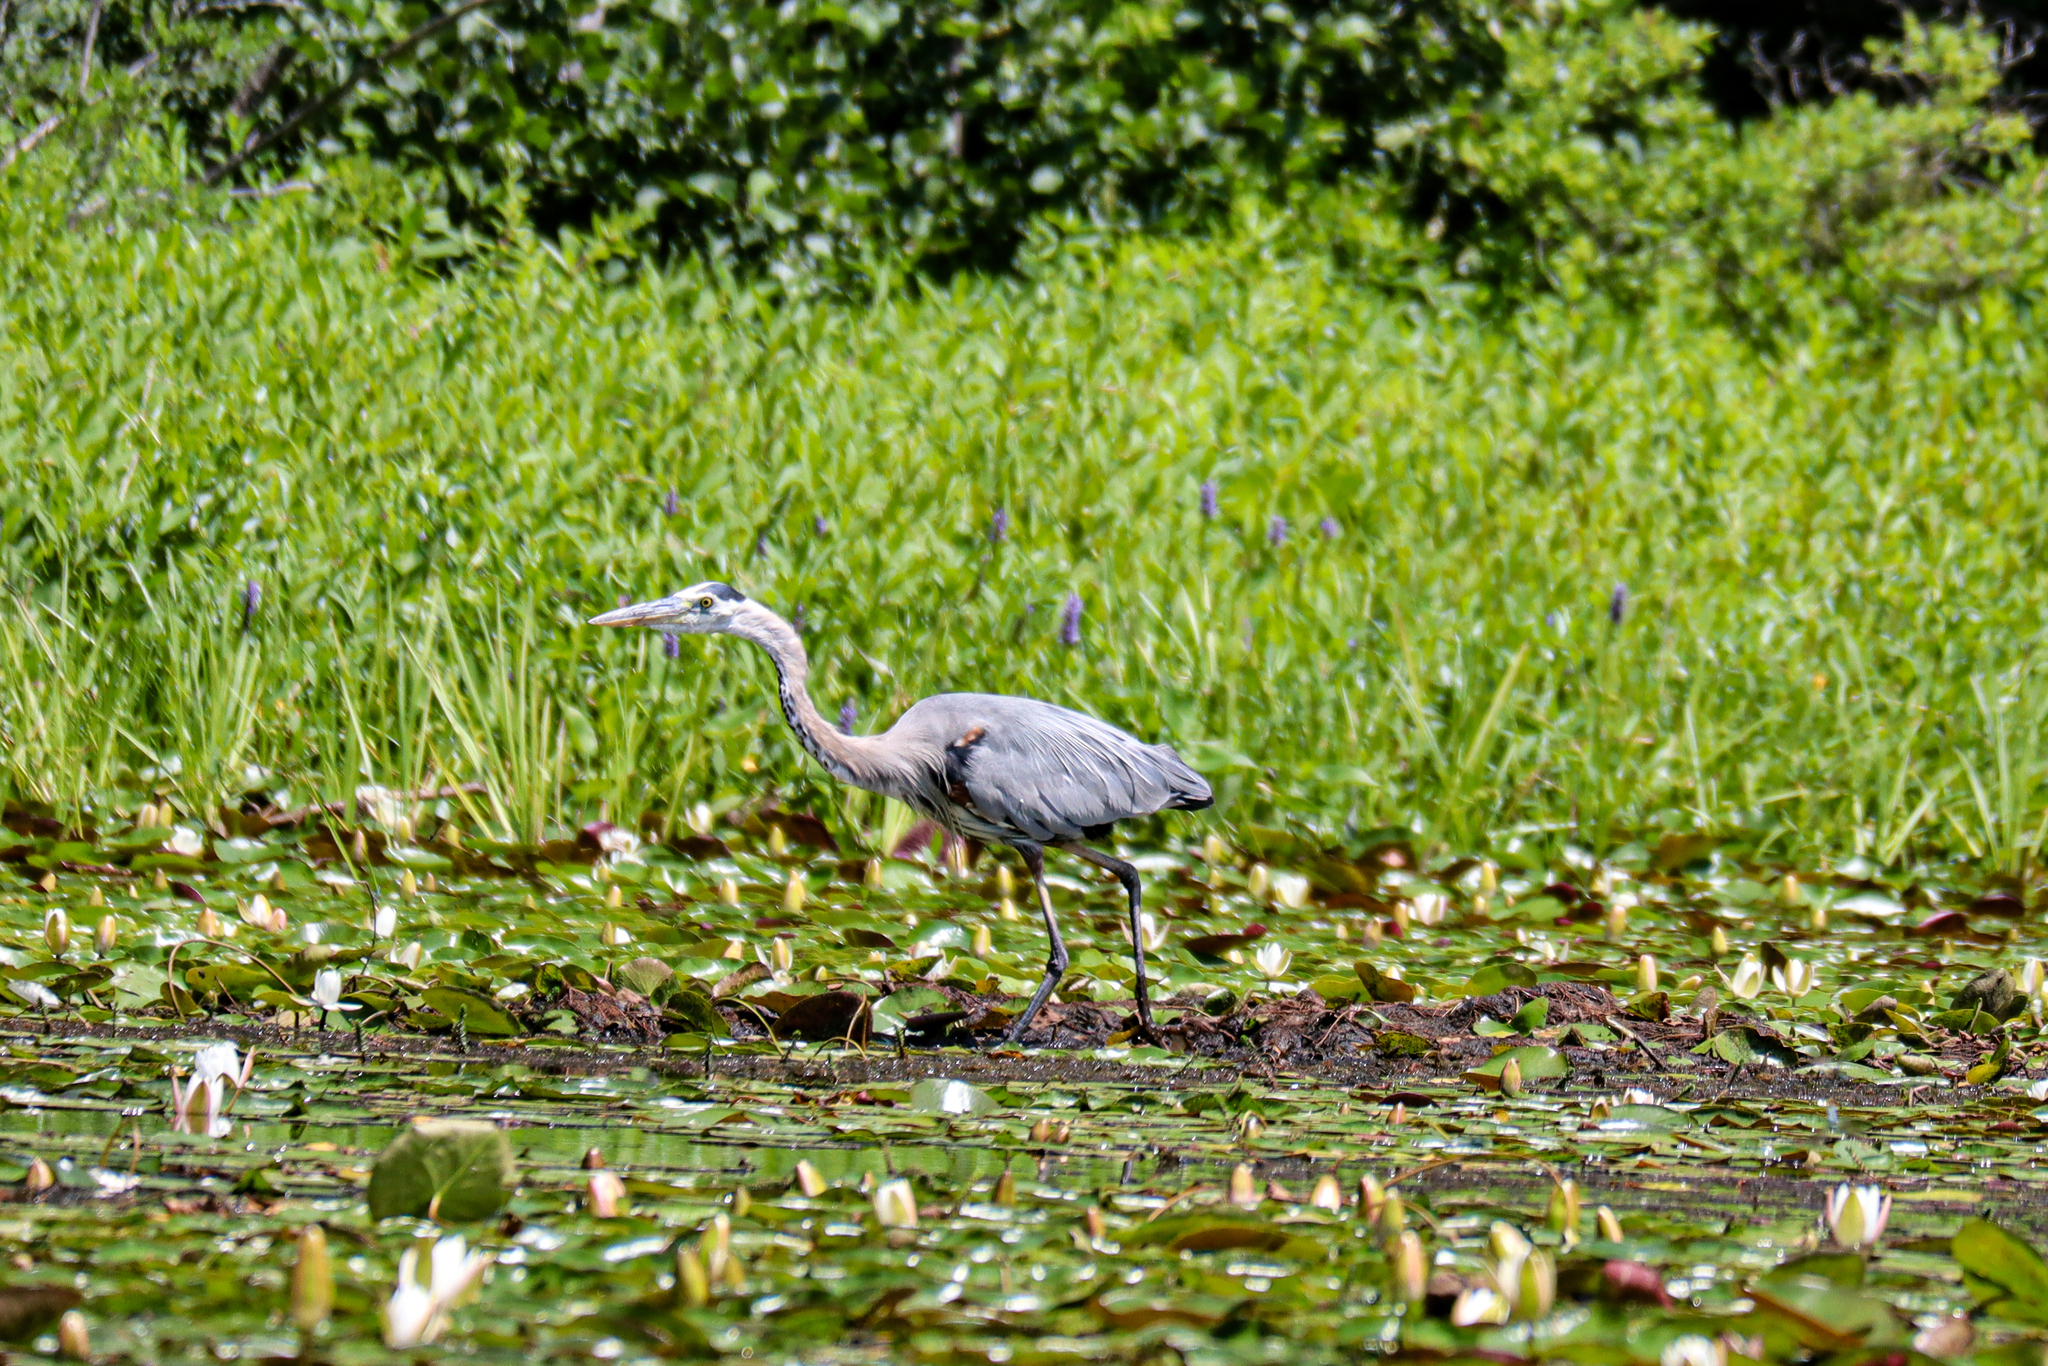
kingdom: Animalia
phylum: Chordata
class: Aves
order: Pelecaniformes
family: Ardeidae
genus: Ardea
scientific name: Ardea herodias
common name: Great blue heron
